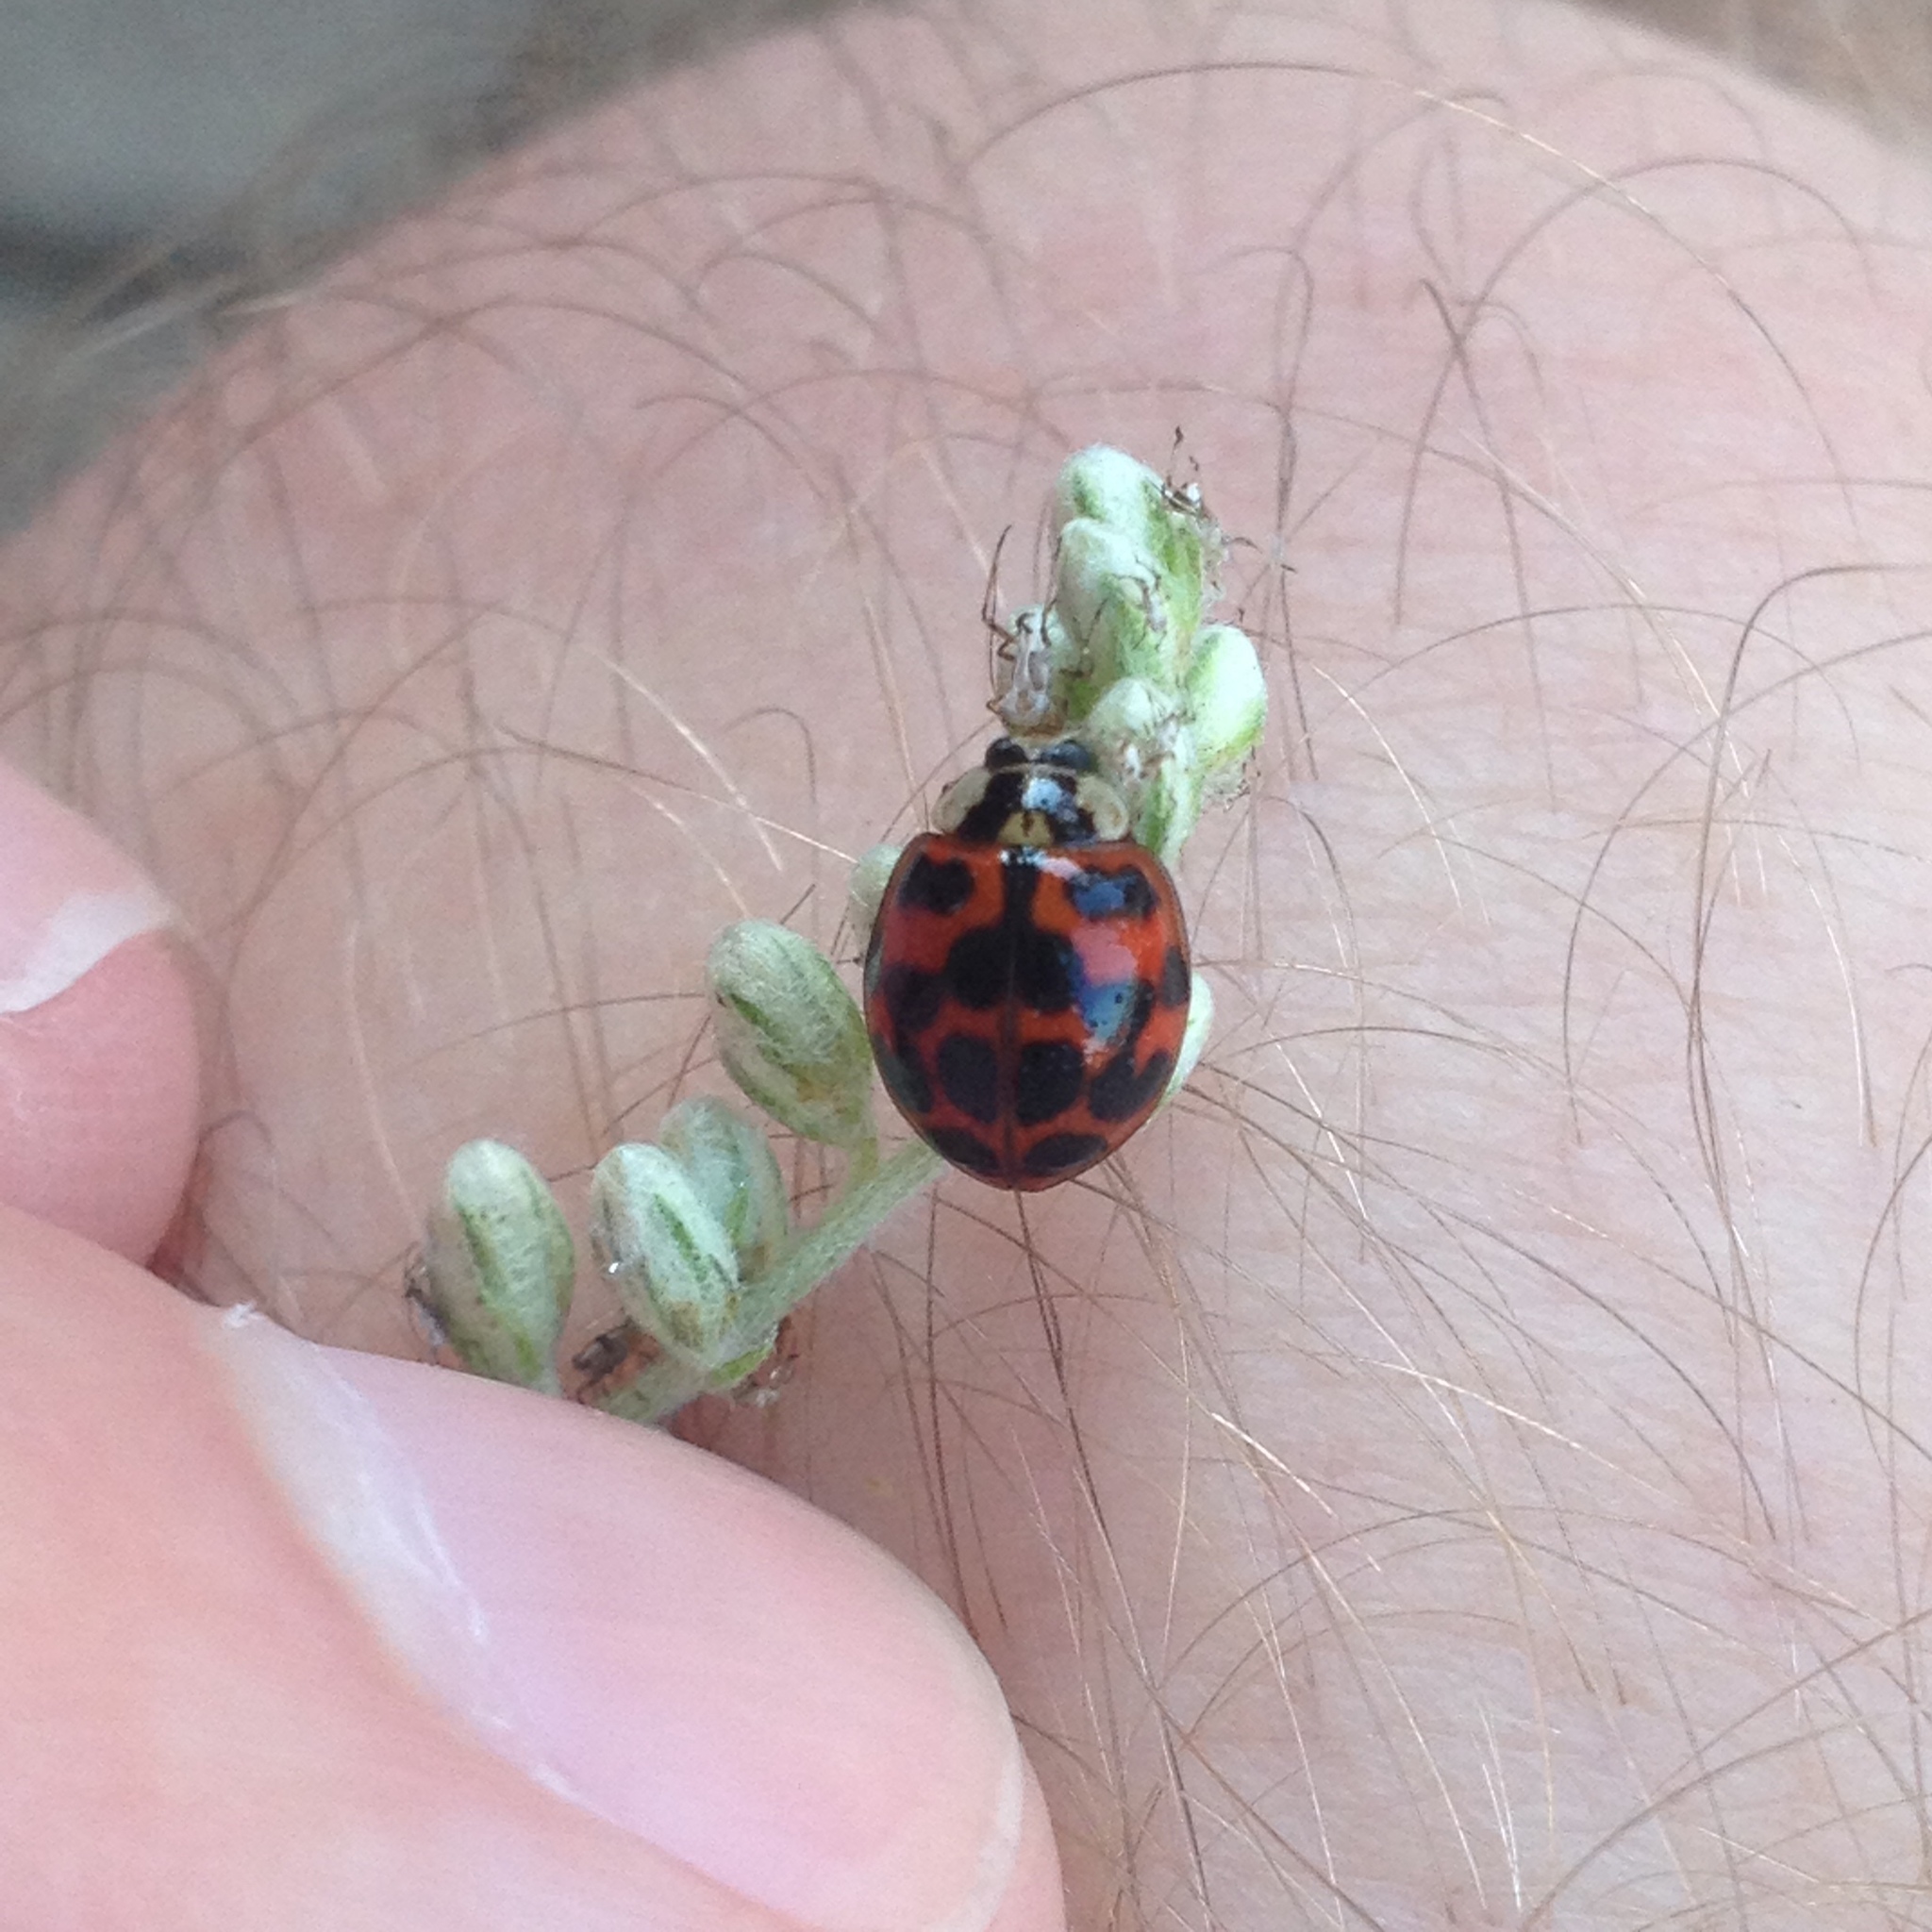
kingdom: Animalia
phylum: Arthropoda
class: Insecta
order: Coleoptera
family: Coccinellidae
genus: Harmonia
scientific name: Harmonia axyridis
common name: Harlequin ladybird
